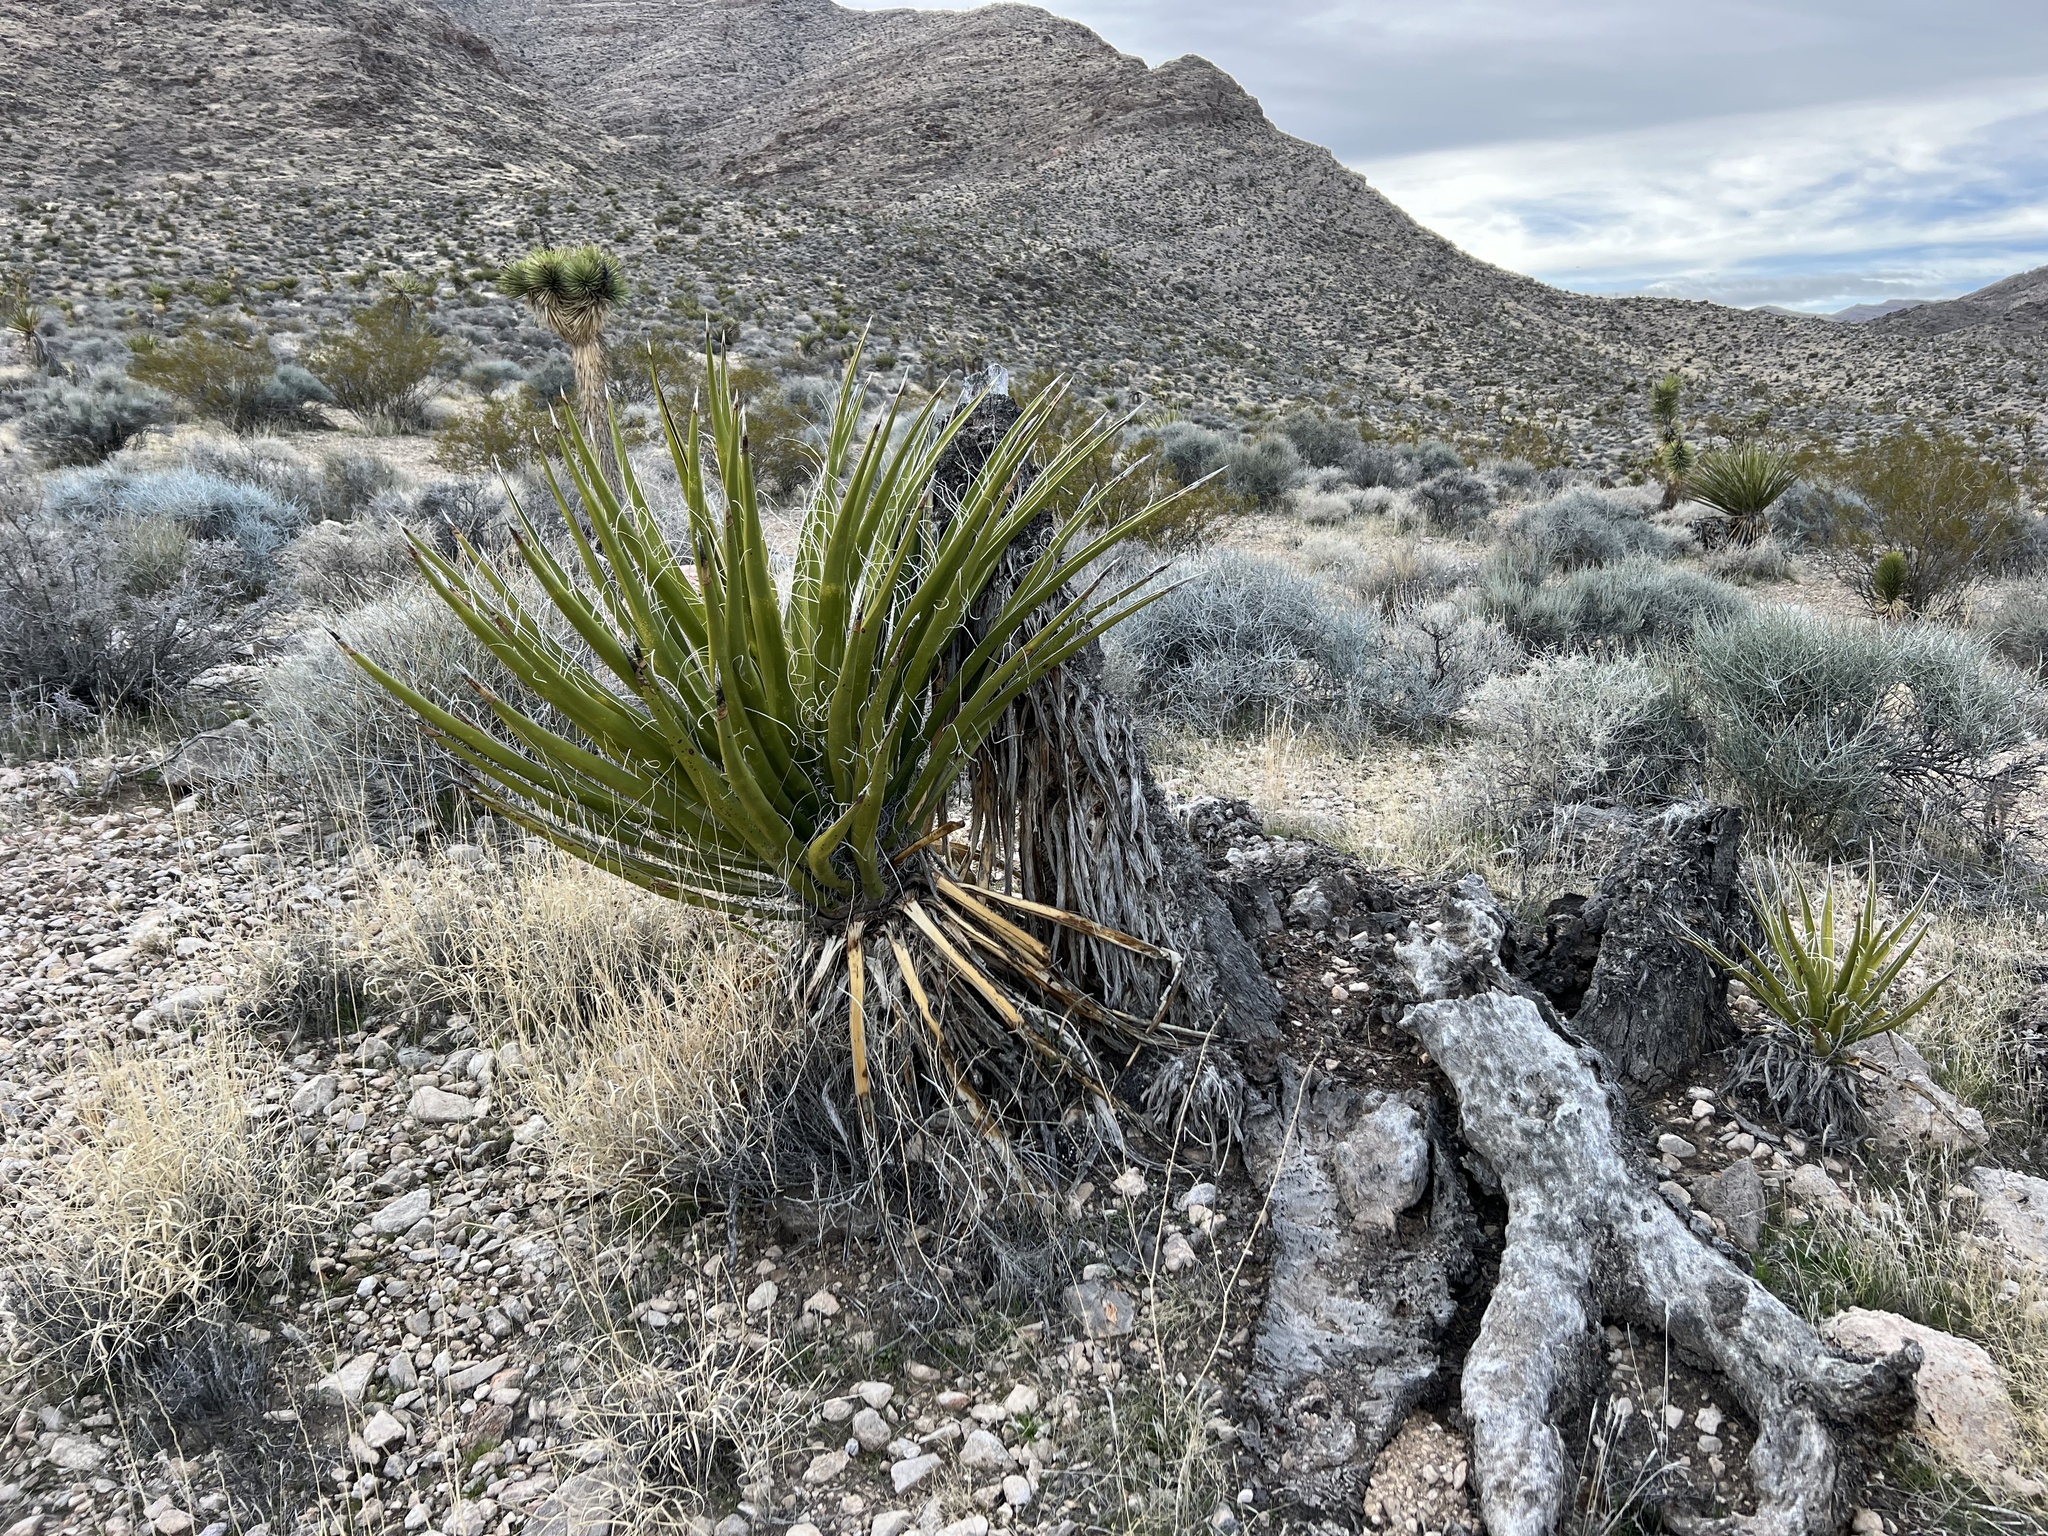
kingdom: Plantae
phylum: Tracheophyta
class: Liliopsida
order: Asparagales
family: Asparagaceae
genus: Yucca
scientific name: Yucca schidigera
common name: Mojave yucca
